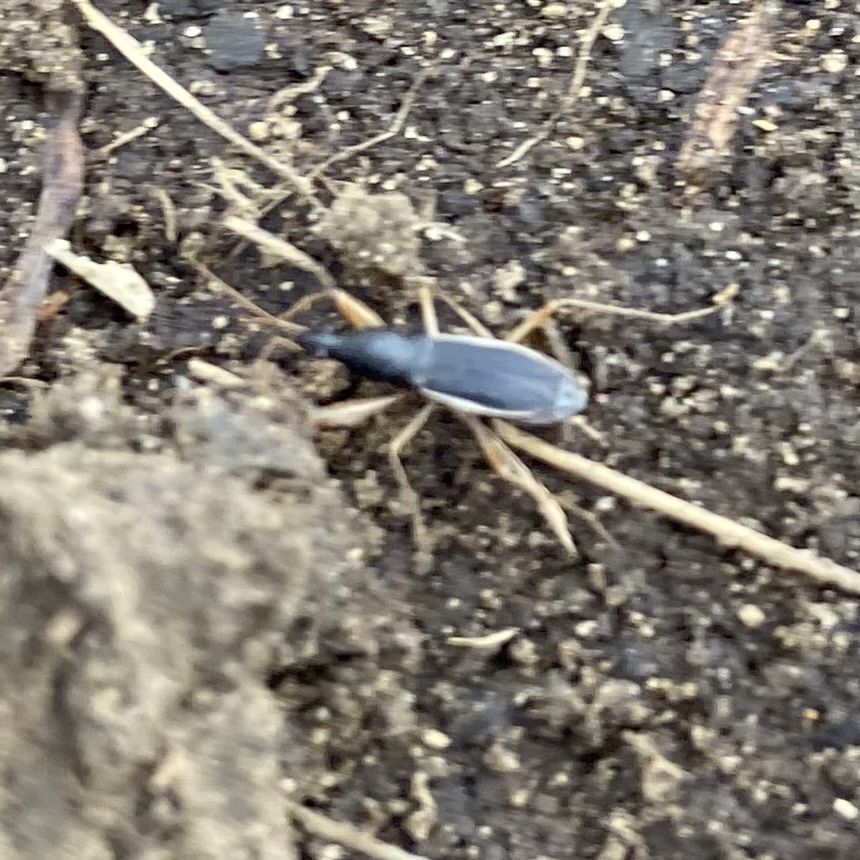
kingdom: Animalia
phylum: Arthropoda
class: Insecta
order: Hemiptera
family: Rhyparochromidae
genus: Cnemodus
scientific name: Cnemodus mavortius
